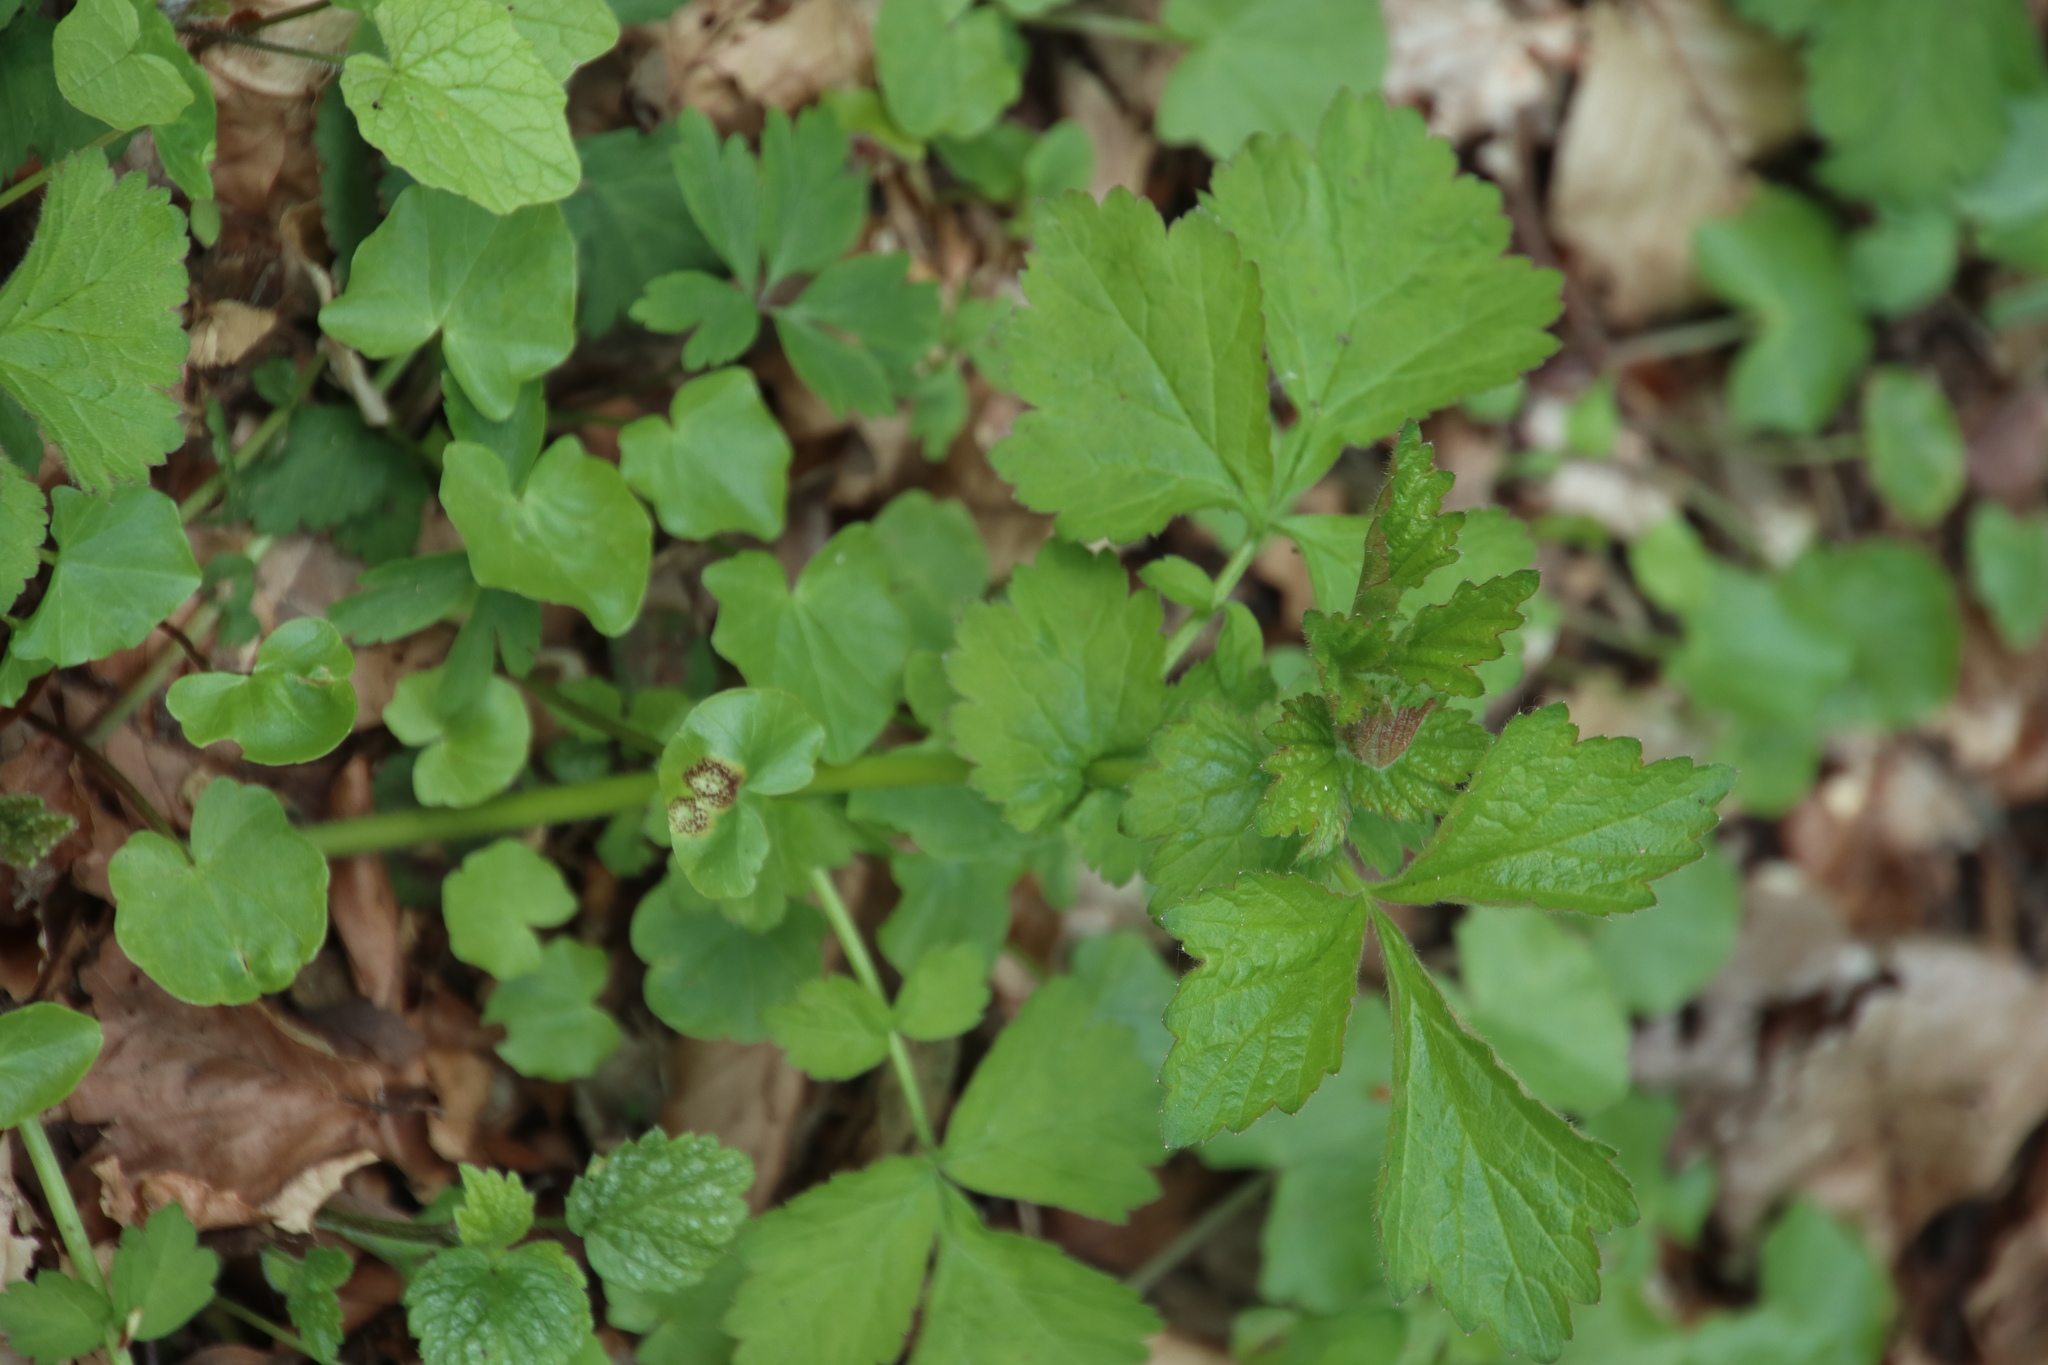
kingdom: Plantae
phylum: Tracheophyta
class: Magnoliopsida
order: Rosales
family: Rosaceae
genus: Geum
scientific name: Geum urbanum
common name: Wood avens
